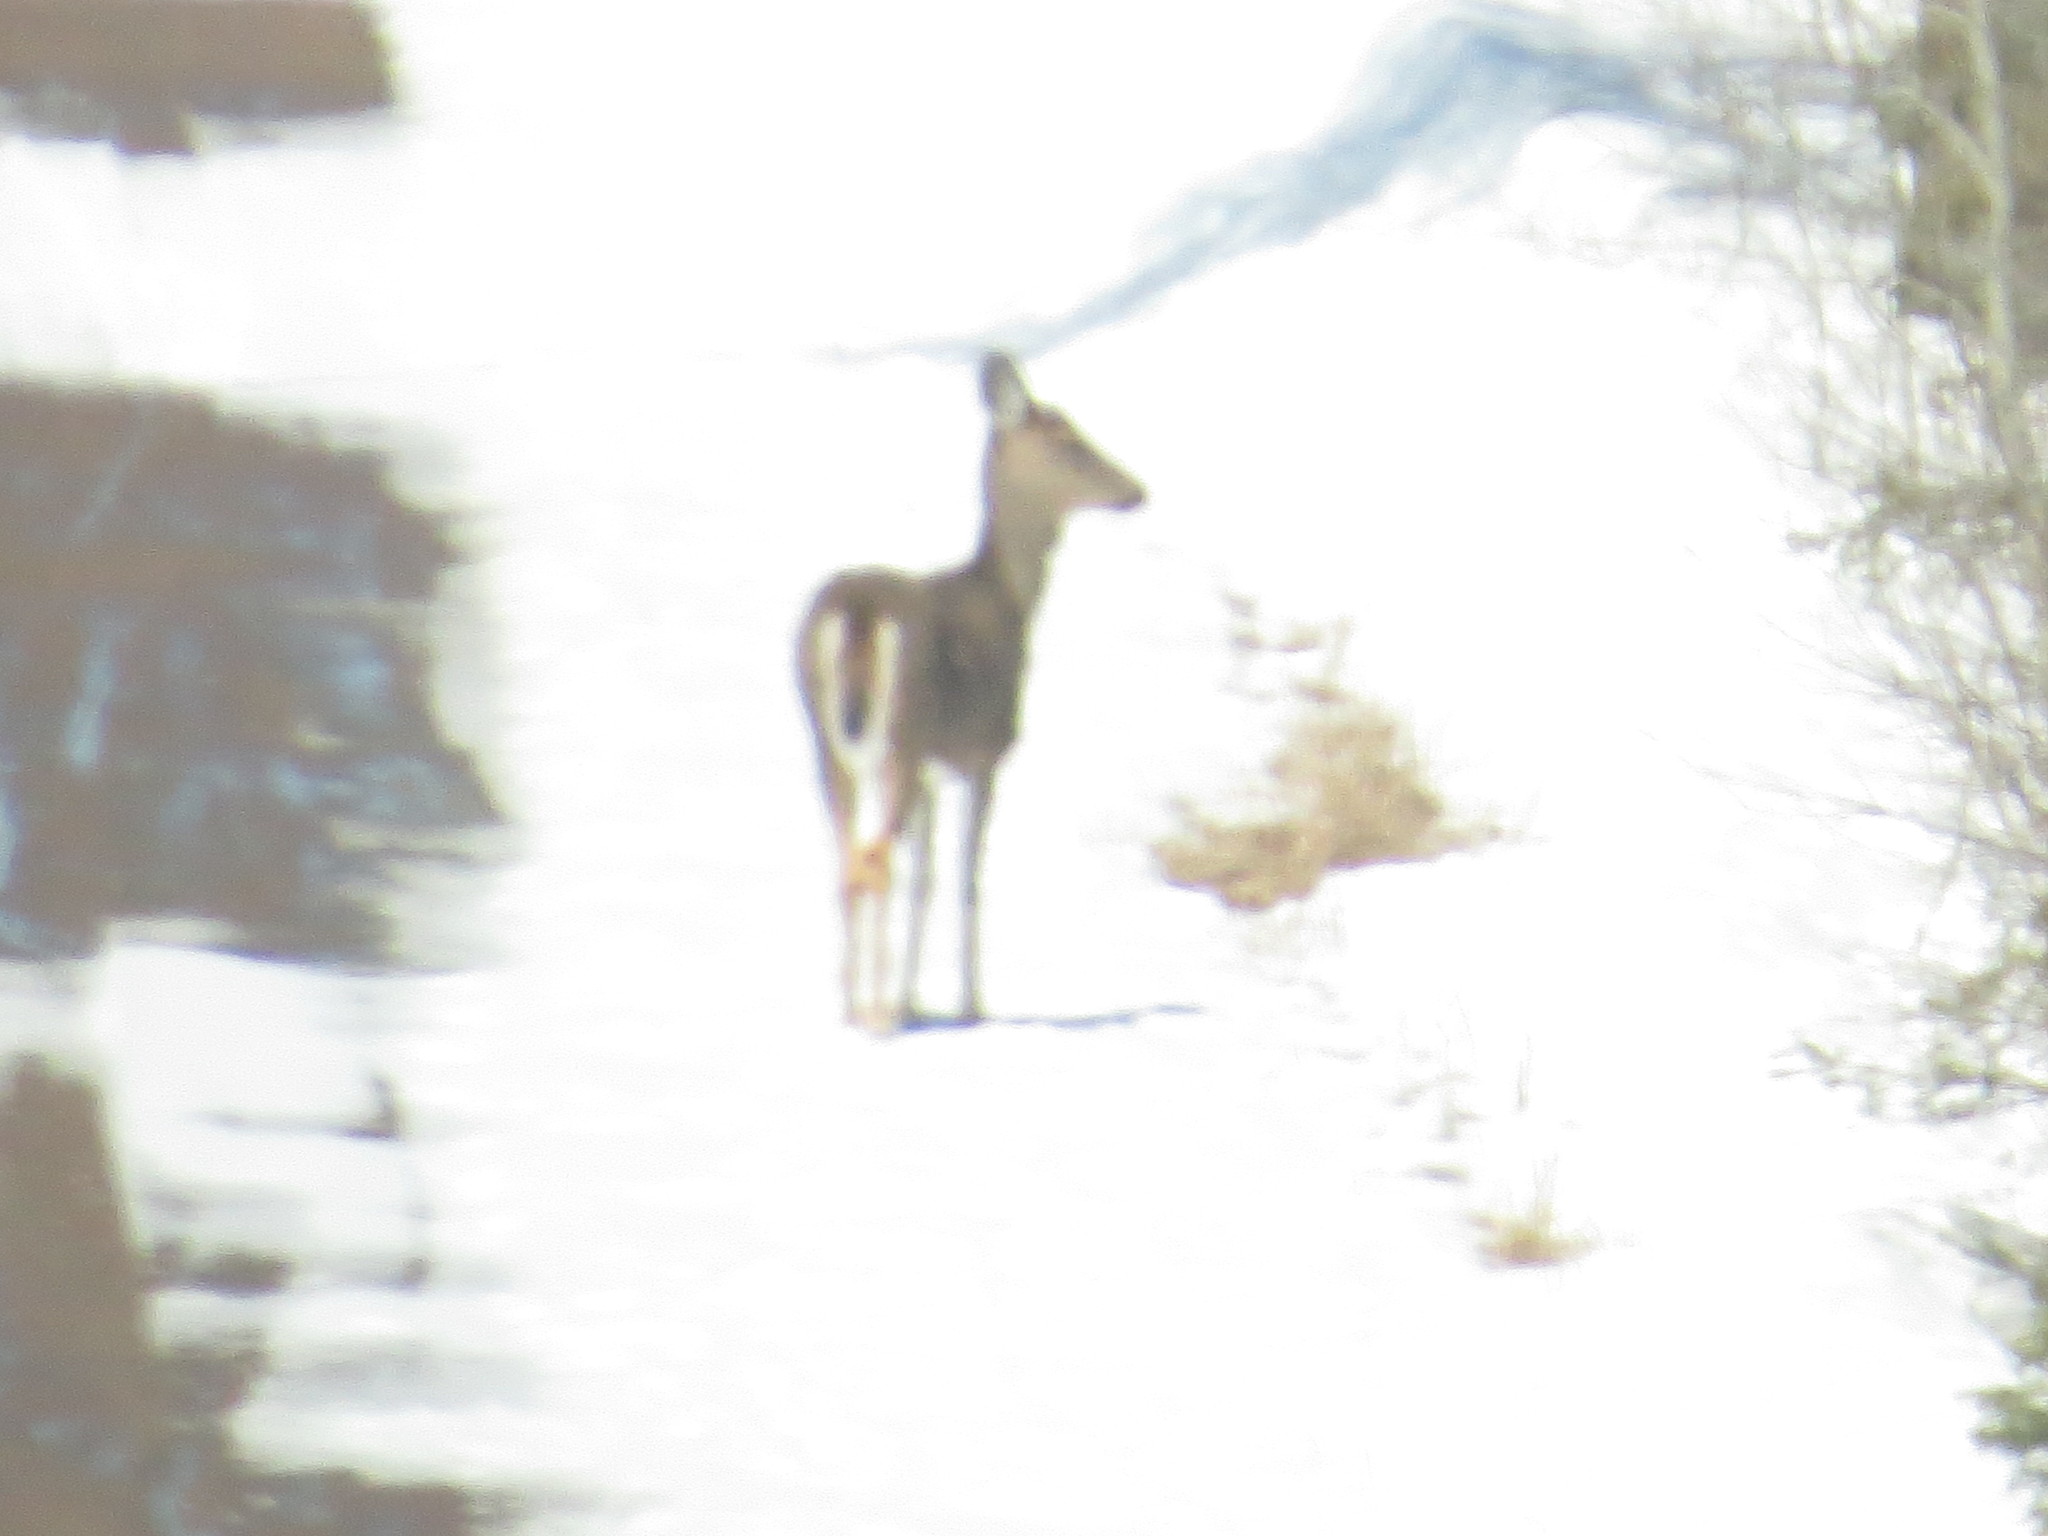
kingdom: Animalia
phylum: Chordata
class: Mammalia
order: Artiodactyla
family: Cervidae
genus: Odocoileus
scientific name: Odocoileus virginianus
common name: White-tailed deer
